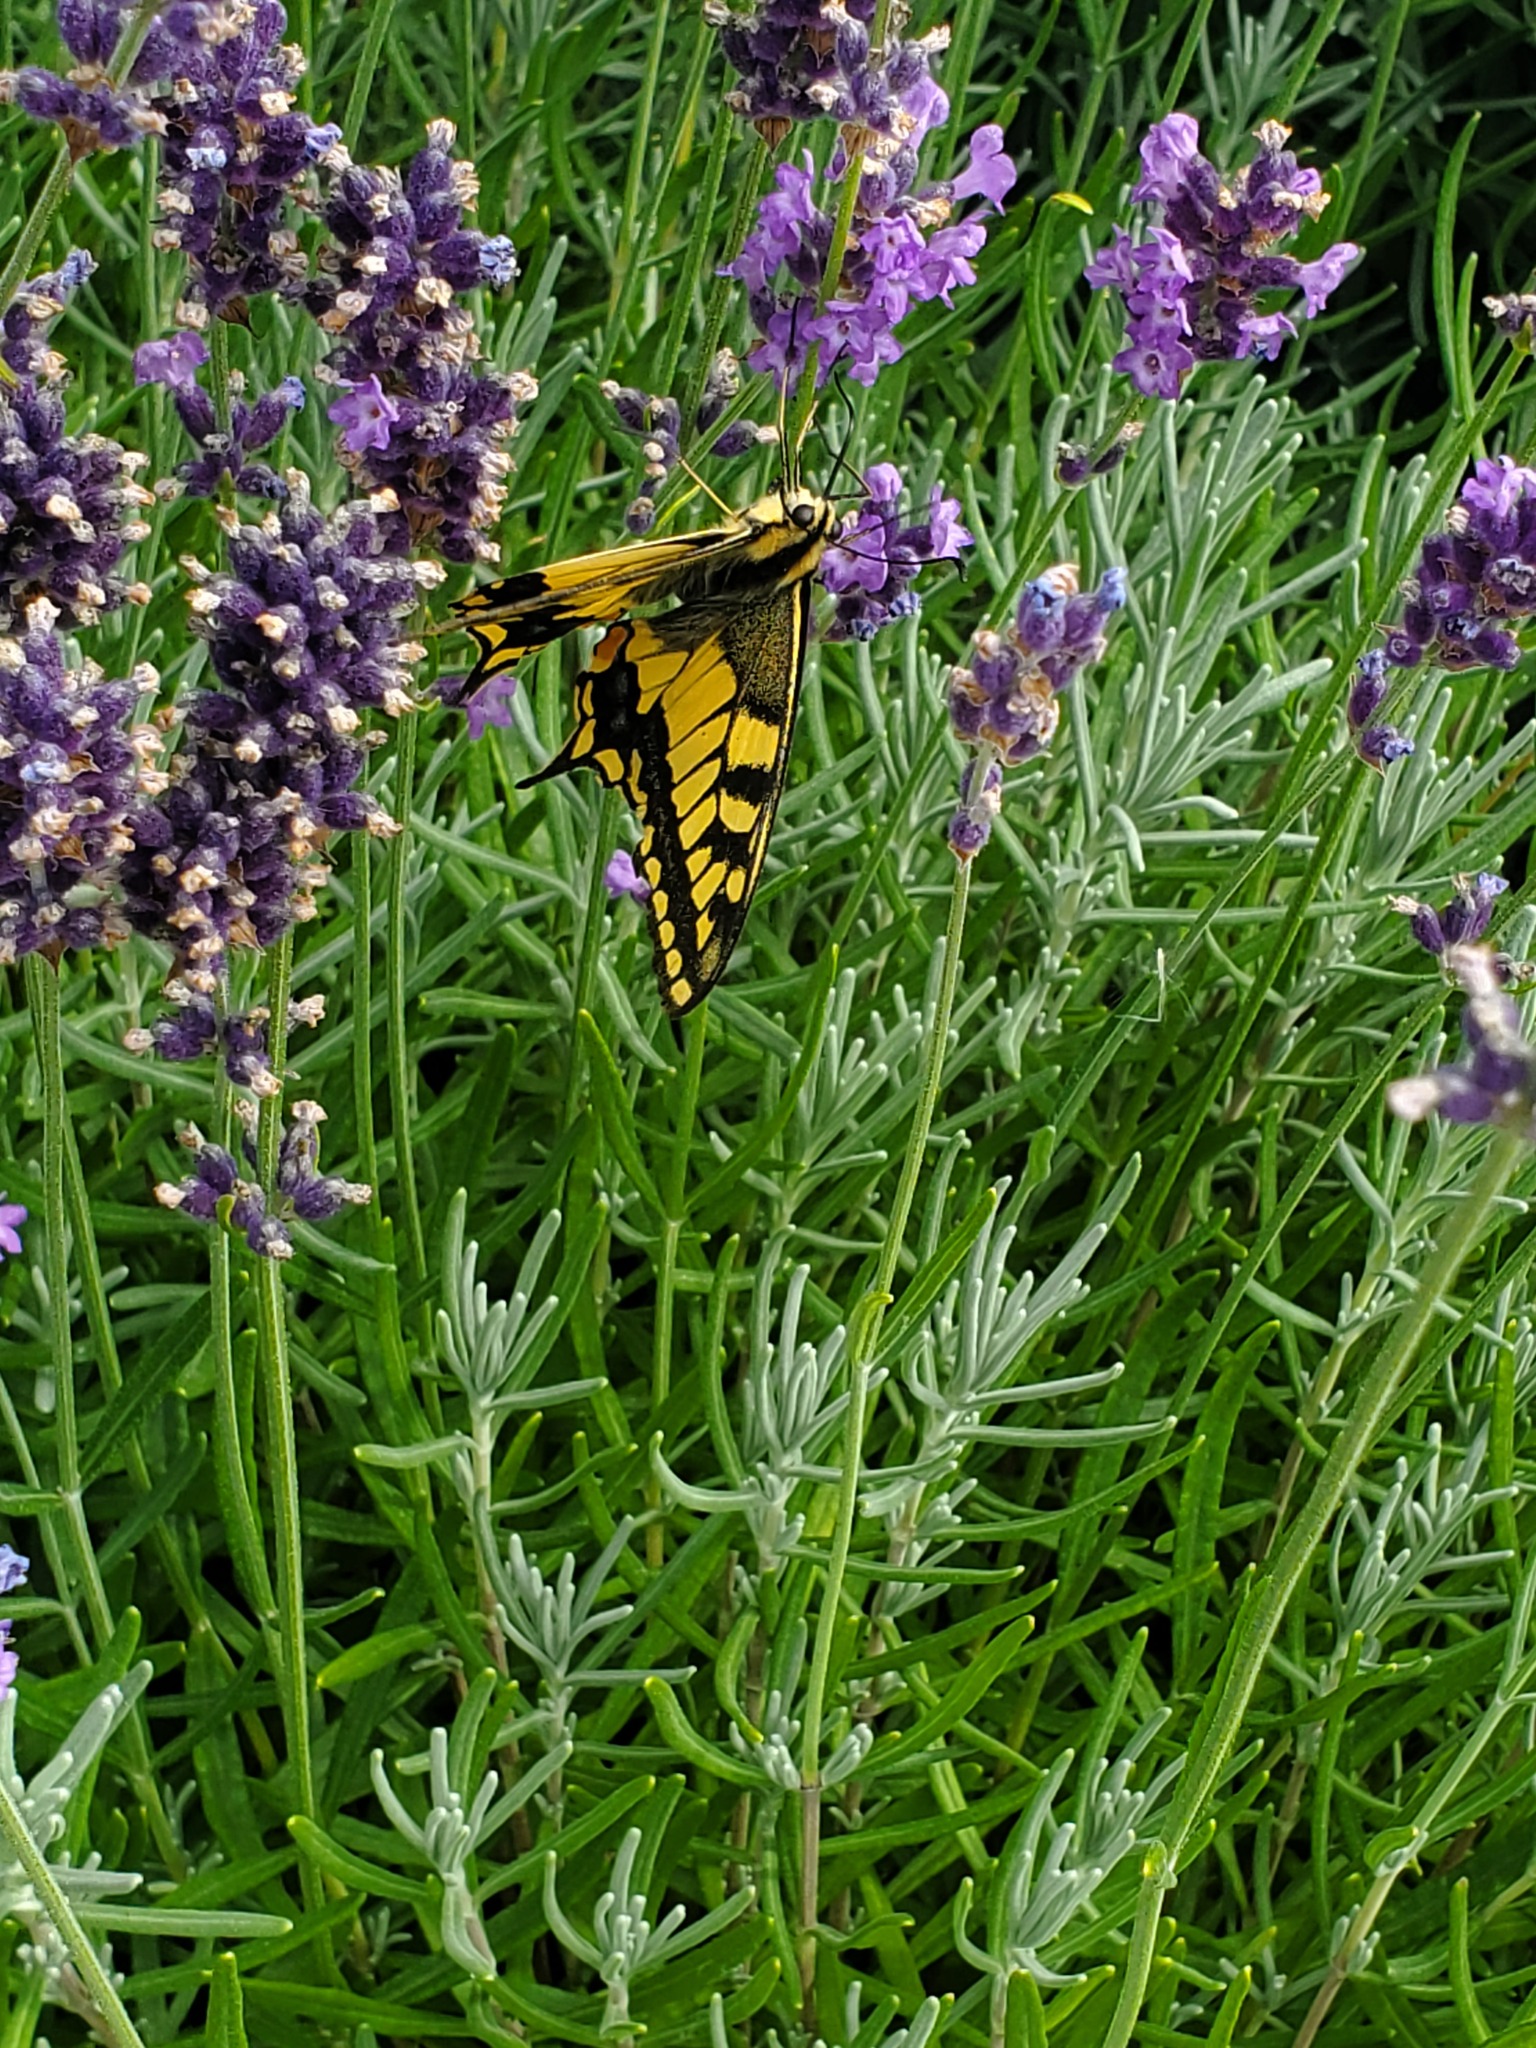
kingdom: Animalia
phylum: Arthropoda
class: Insecta
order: Lepidoptera
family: Papilionidae
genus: Papilio
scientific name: Papilio machaon
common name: Swallowtail
